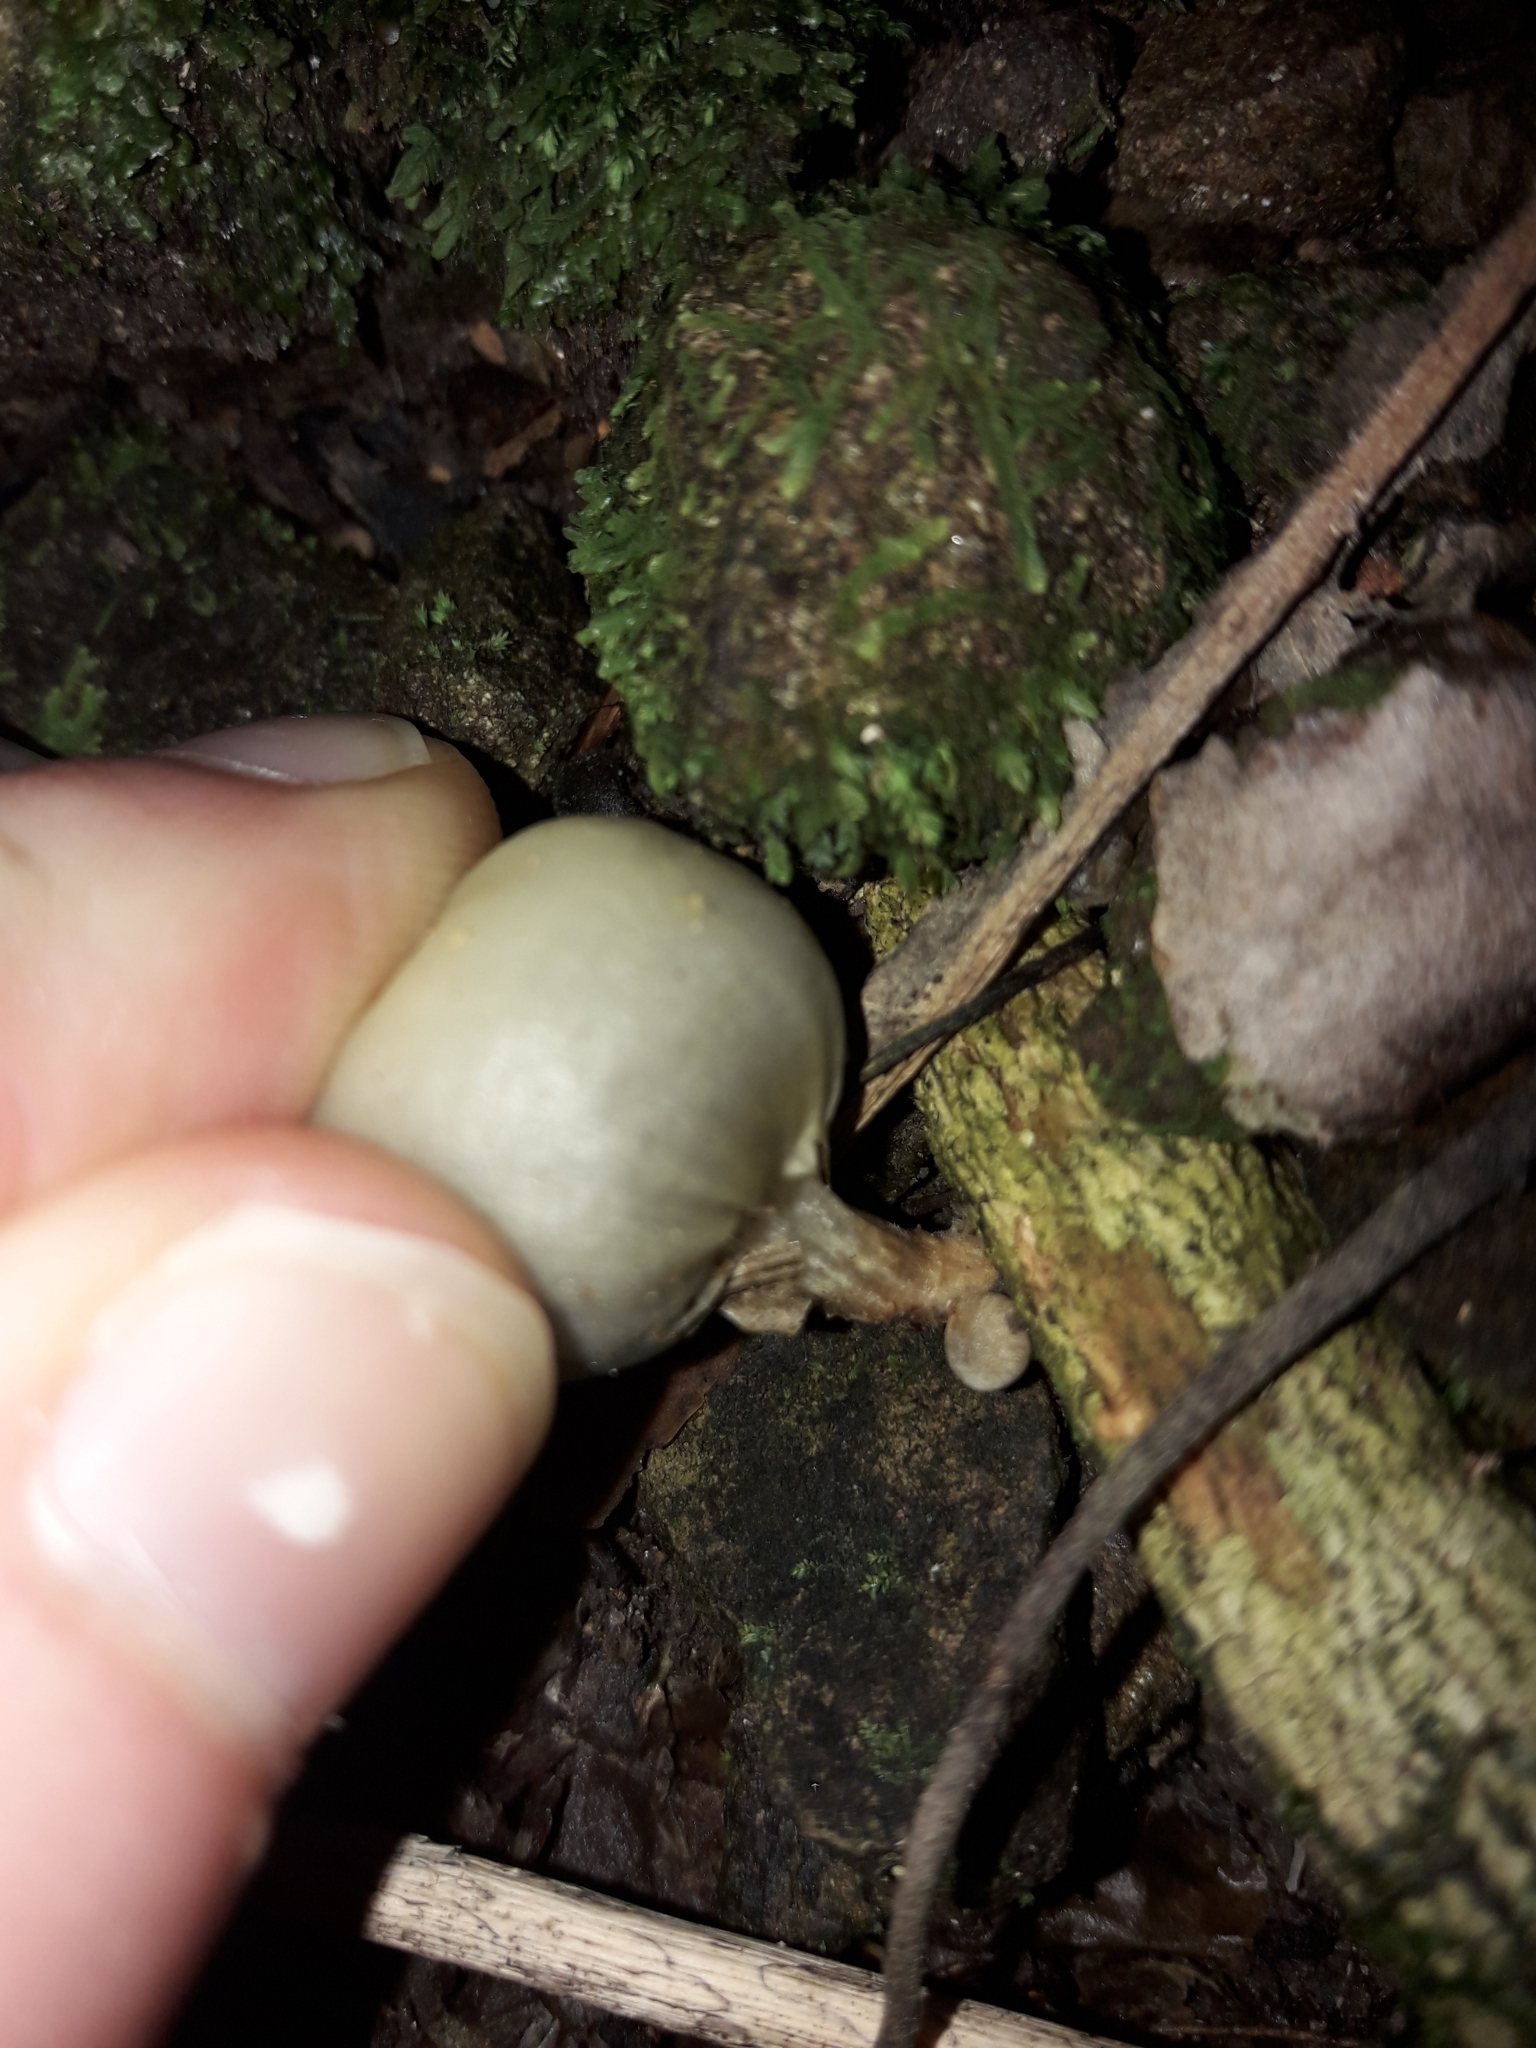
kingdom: Fungi
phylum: Basidiomycota
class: Agaricomycetes
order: Agaricales
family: Hymenogastraceae
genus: Psilocybe
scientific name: Psilocybe weraroa
